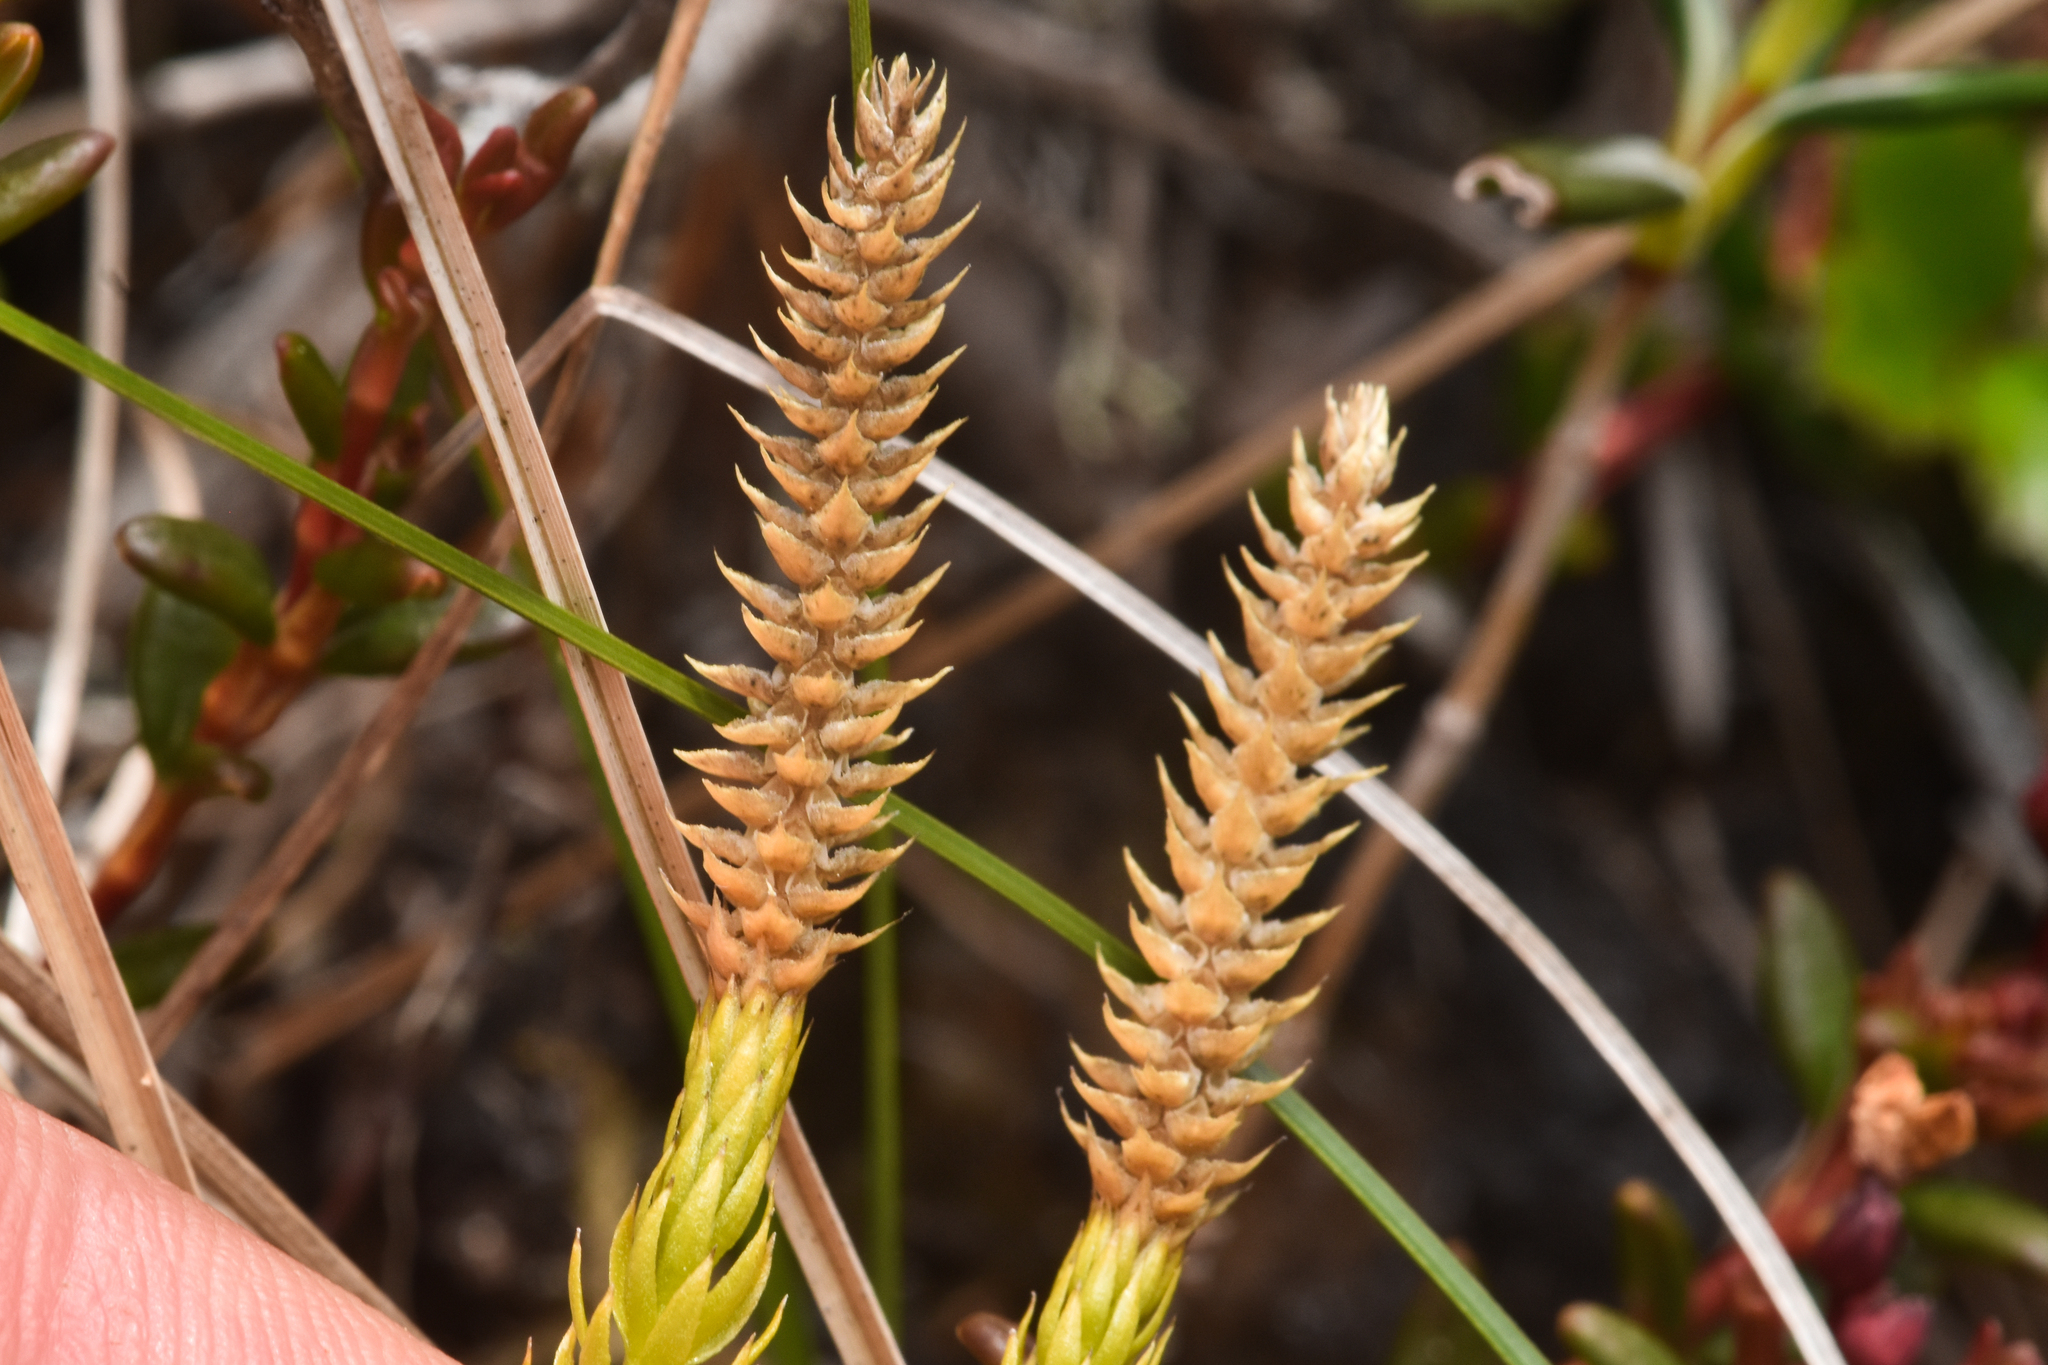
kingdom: Plantae
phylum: Tracheophyta
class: Lycopodiopsida
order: Lycopodiales
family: Lycopodiaceae
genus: Spinulum
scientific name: Spinulum annotinum
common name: Interrupted club-moss
